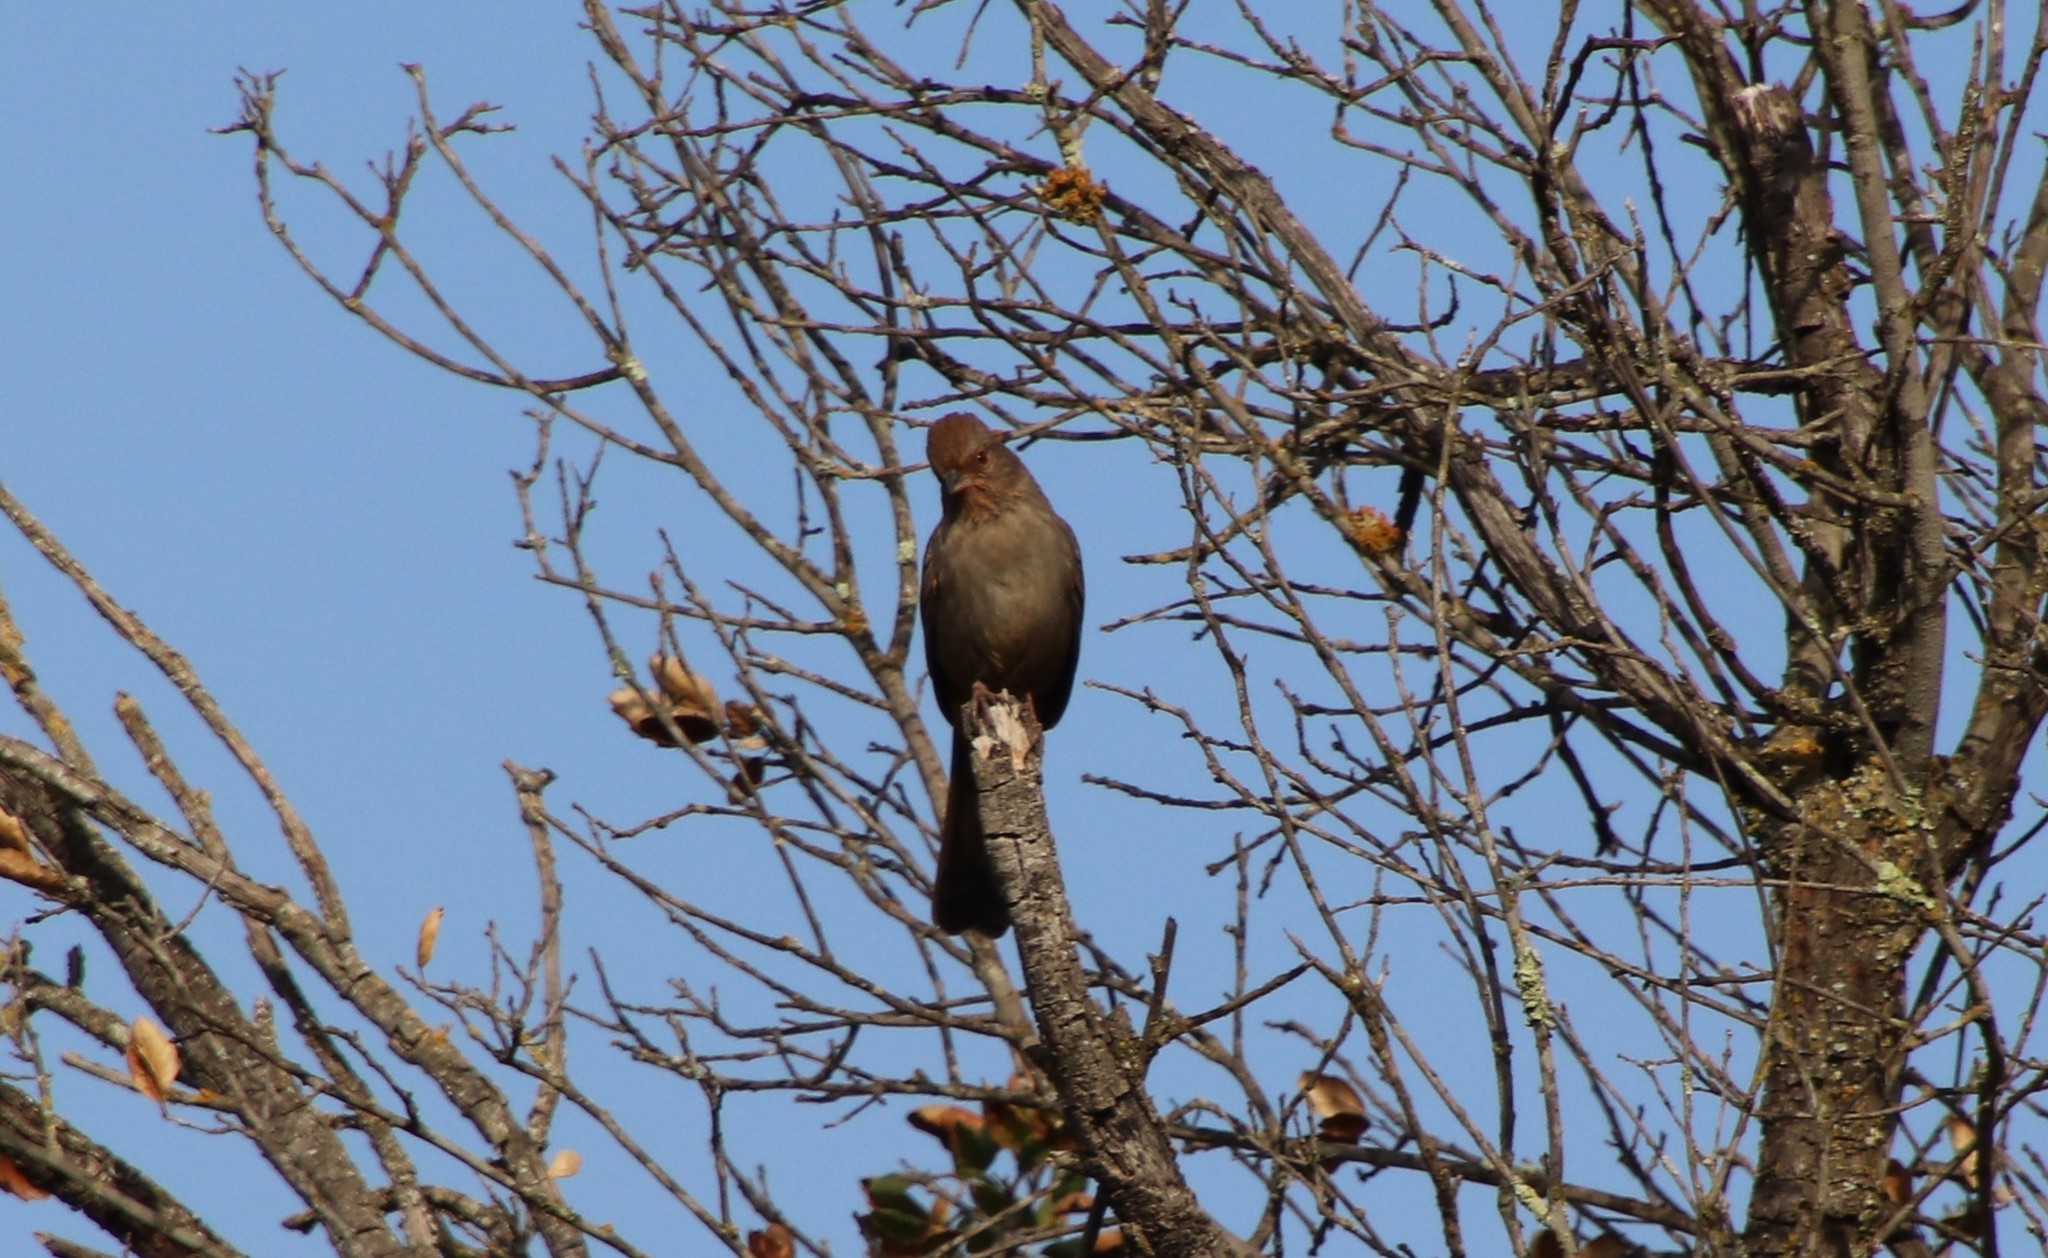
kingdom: Animalia
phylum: Chordata
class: Aves
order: Passeriformes
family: Passerellidae
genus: Melozone
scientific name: Melozone crissalis
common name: California towhee
